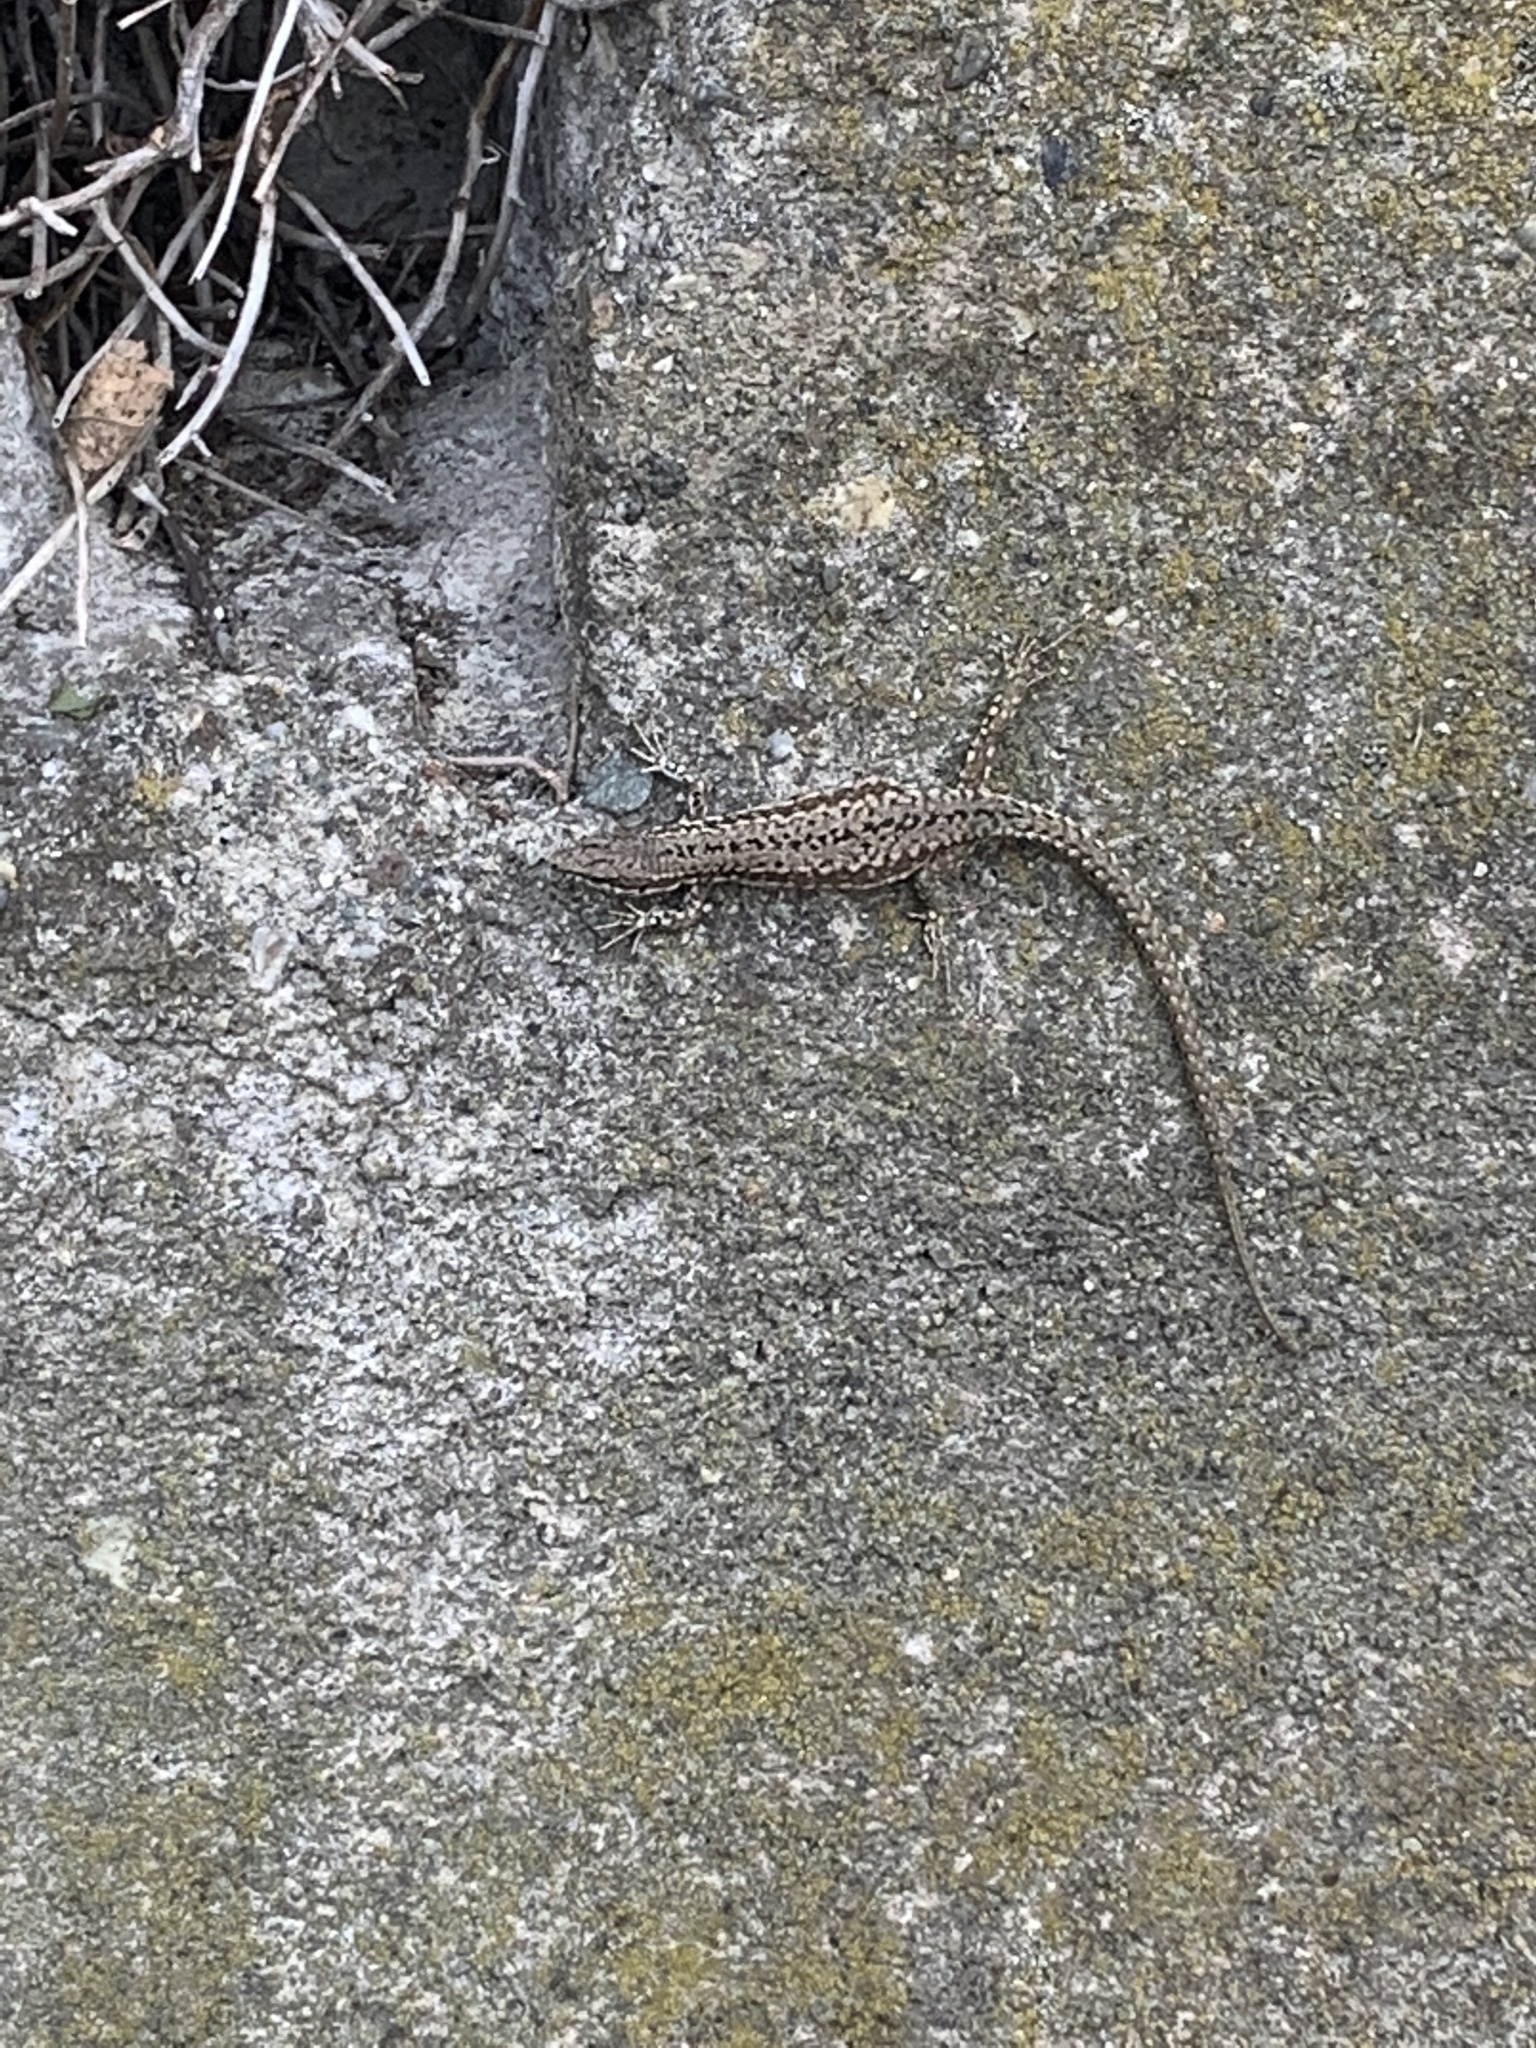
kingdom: Animalia
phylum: Chordata
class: Squamata
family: Lacertidae
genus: Podarcis
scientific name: Podarcis muralis
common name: Common wall lizard
